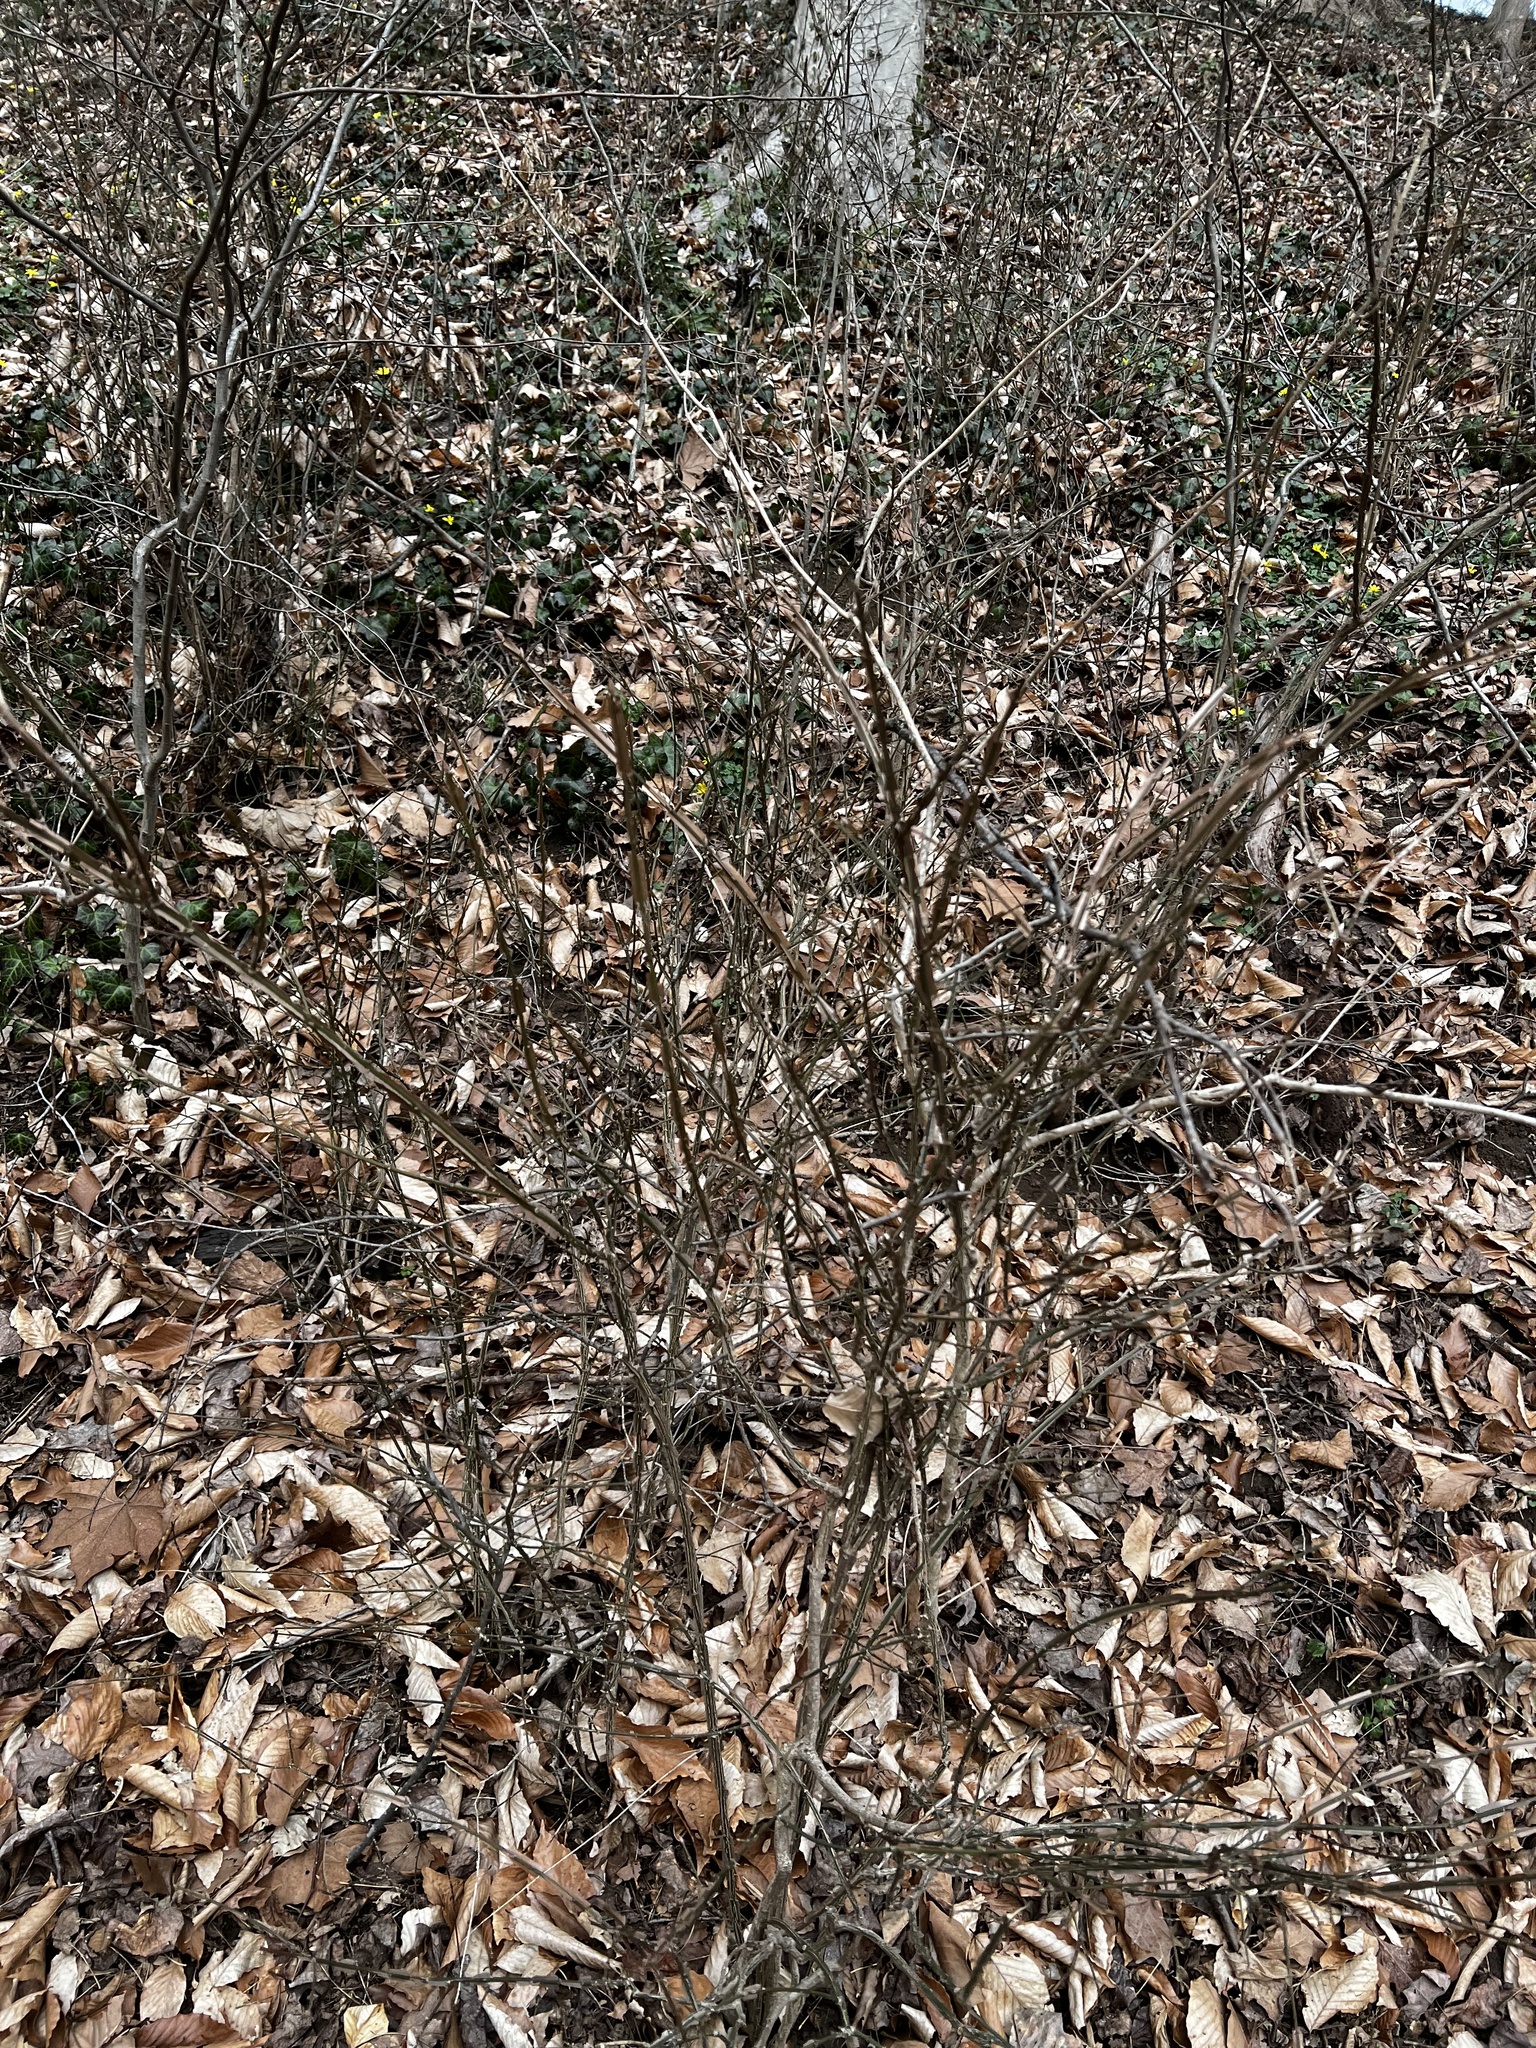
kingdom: Plantae
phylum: Tracheophyta
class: Magnoliopsida
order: Celastrales
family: Celastraceae
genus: Euonymus
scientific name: Euonymus alatus
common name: Winged euonymus
